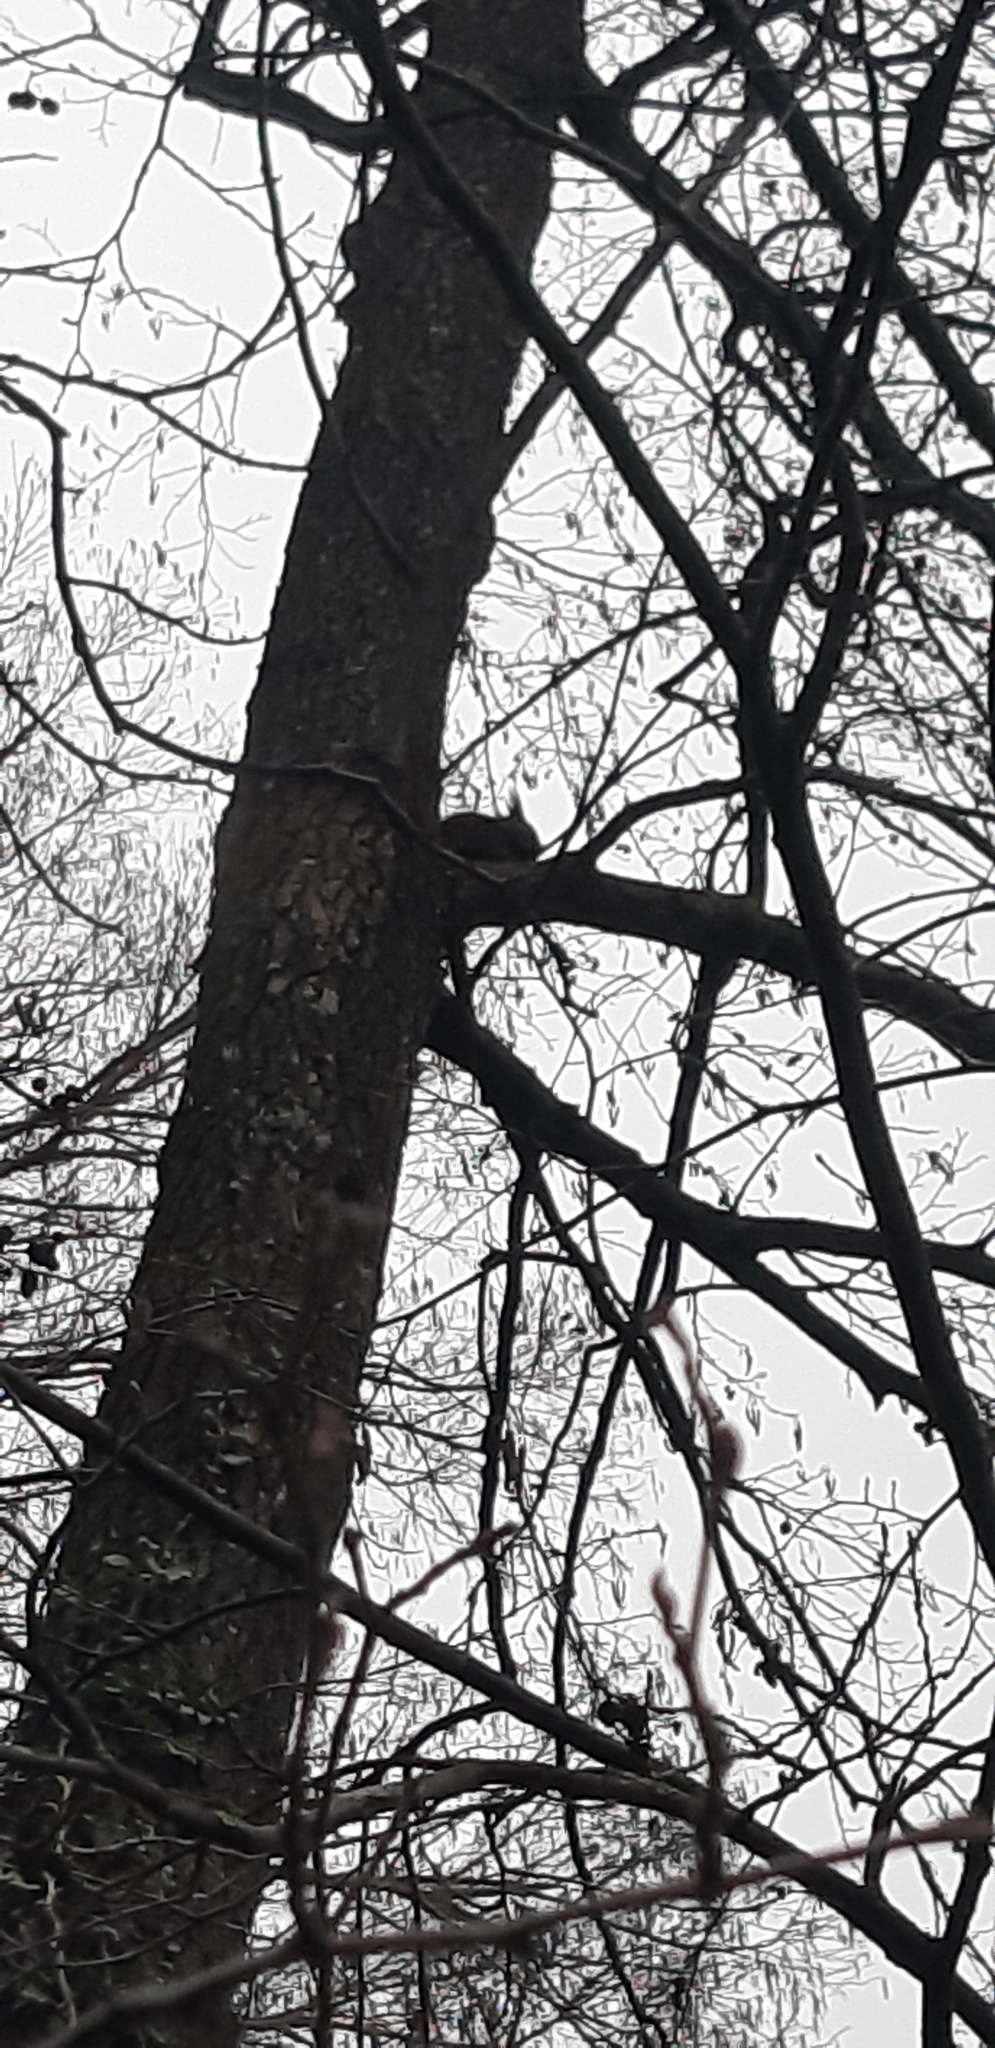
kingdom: Animalia
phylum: Chordata
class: Mammalia
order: Rodentia
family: Sciuridae
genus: Sciurus
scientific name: Sciurus vulgaris
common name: Eurasian red squirrel
